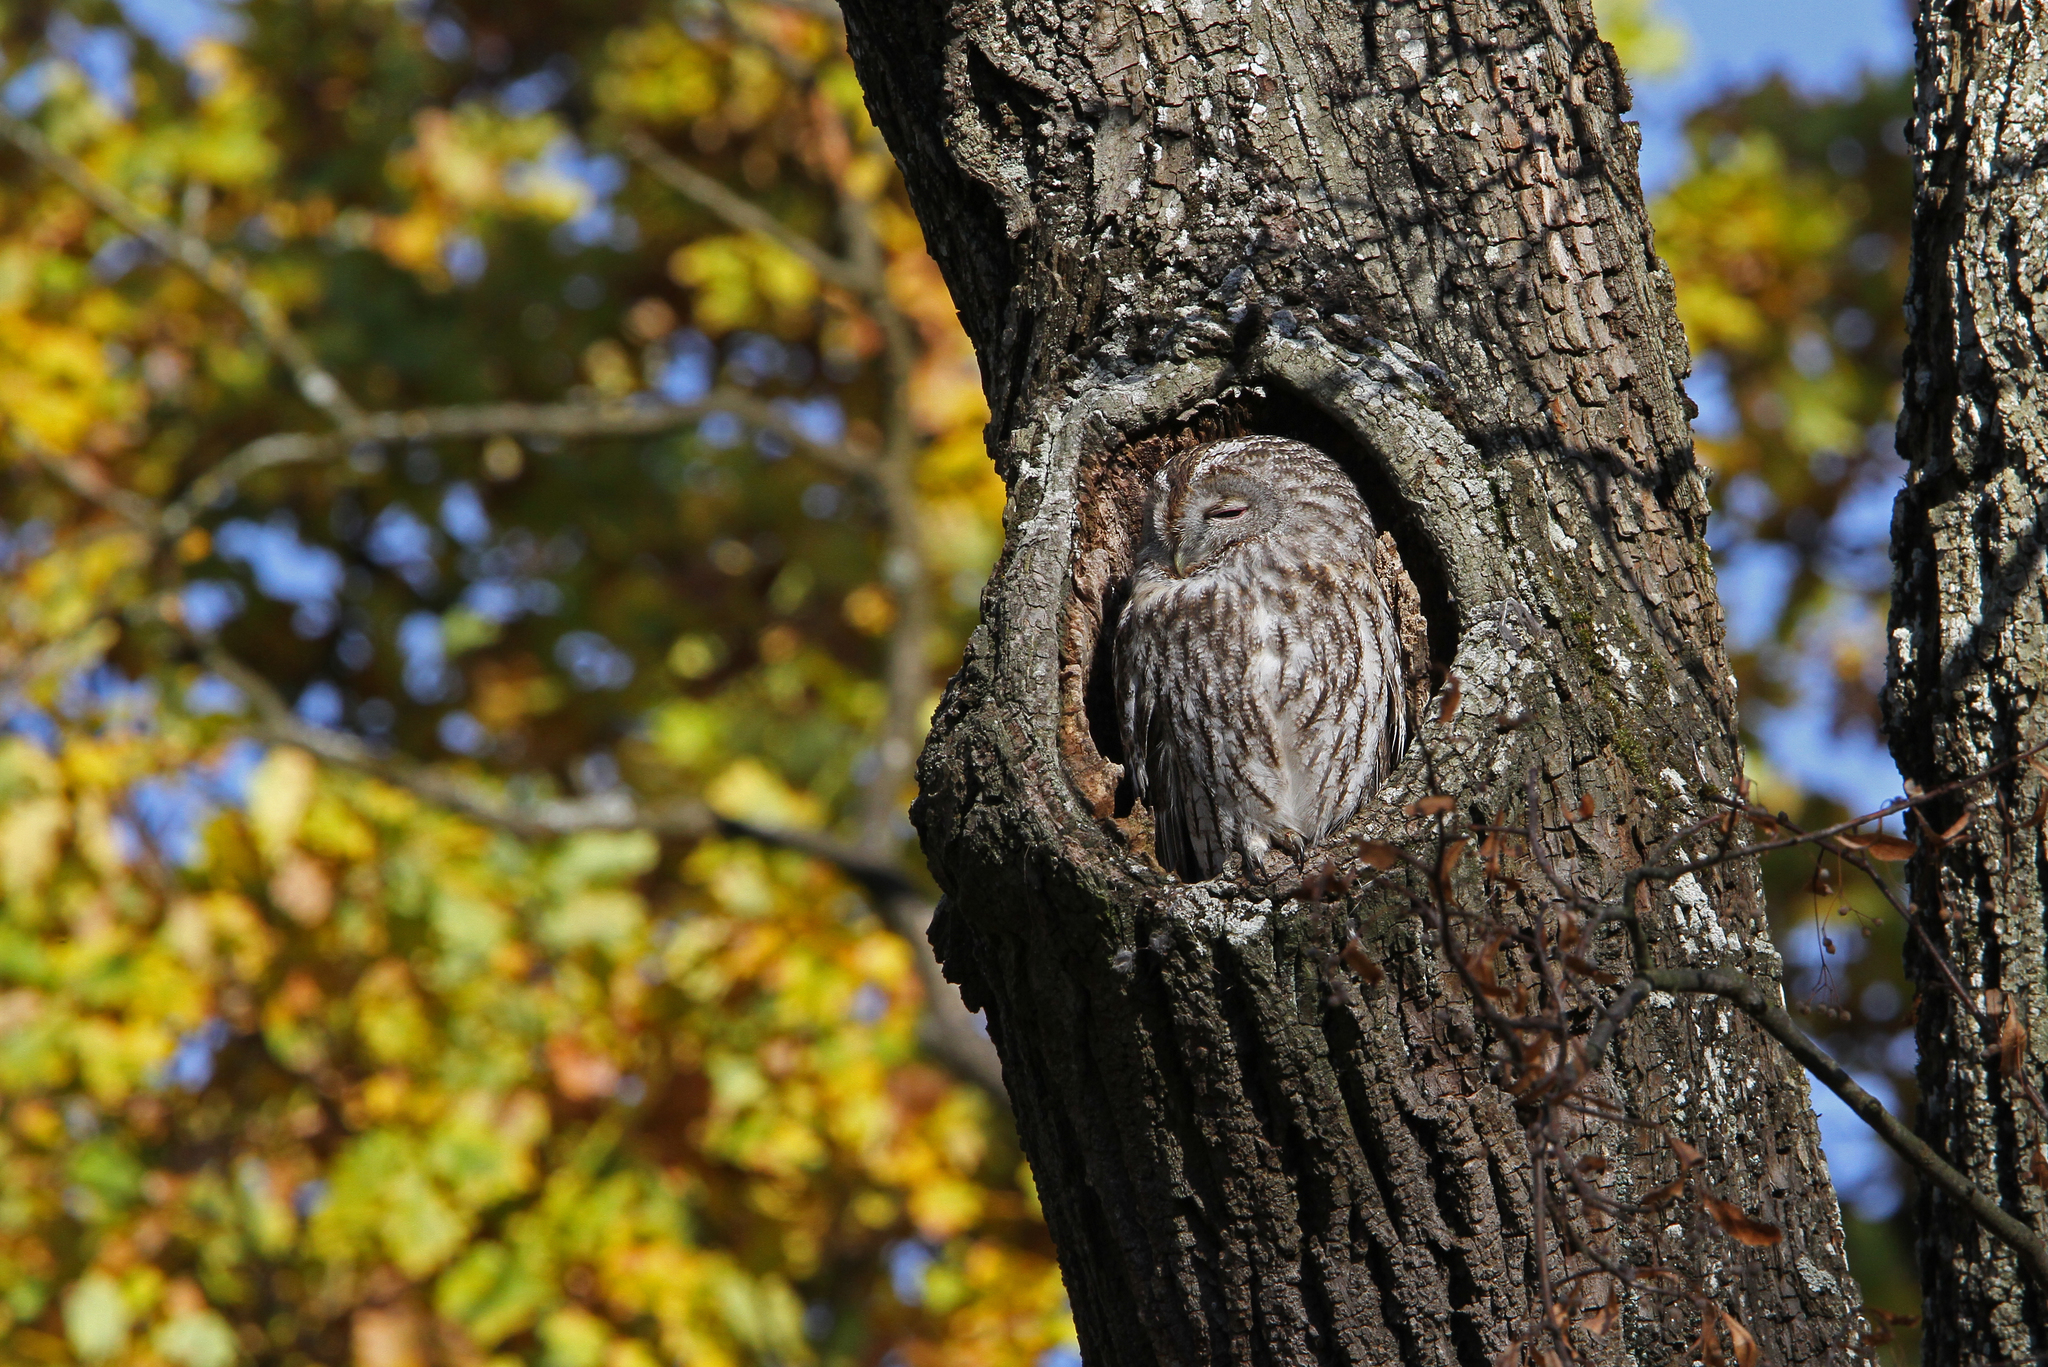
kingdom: Animalia
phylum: Chordata
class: Aves
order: Strigiformes
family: Strigidae
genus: Strix
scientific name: Strix aluco
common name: Tawny owl
